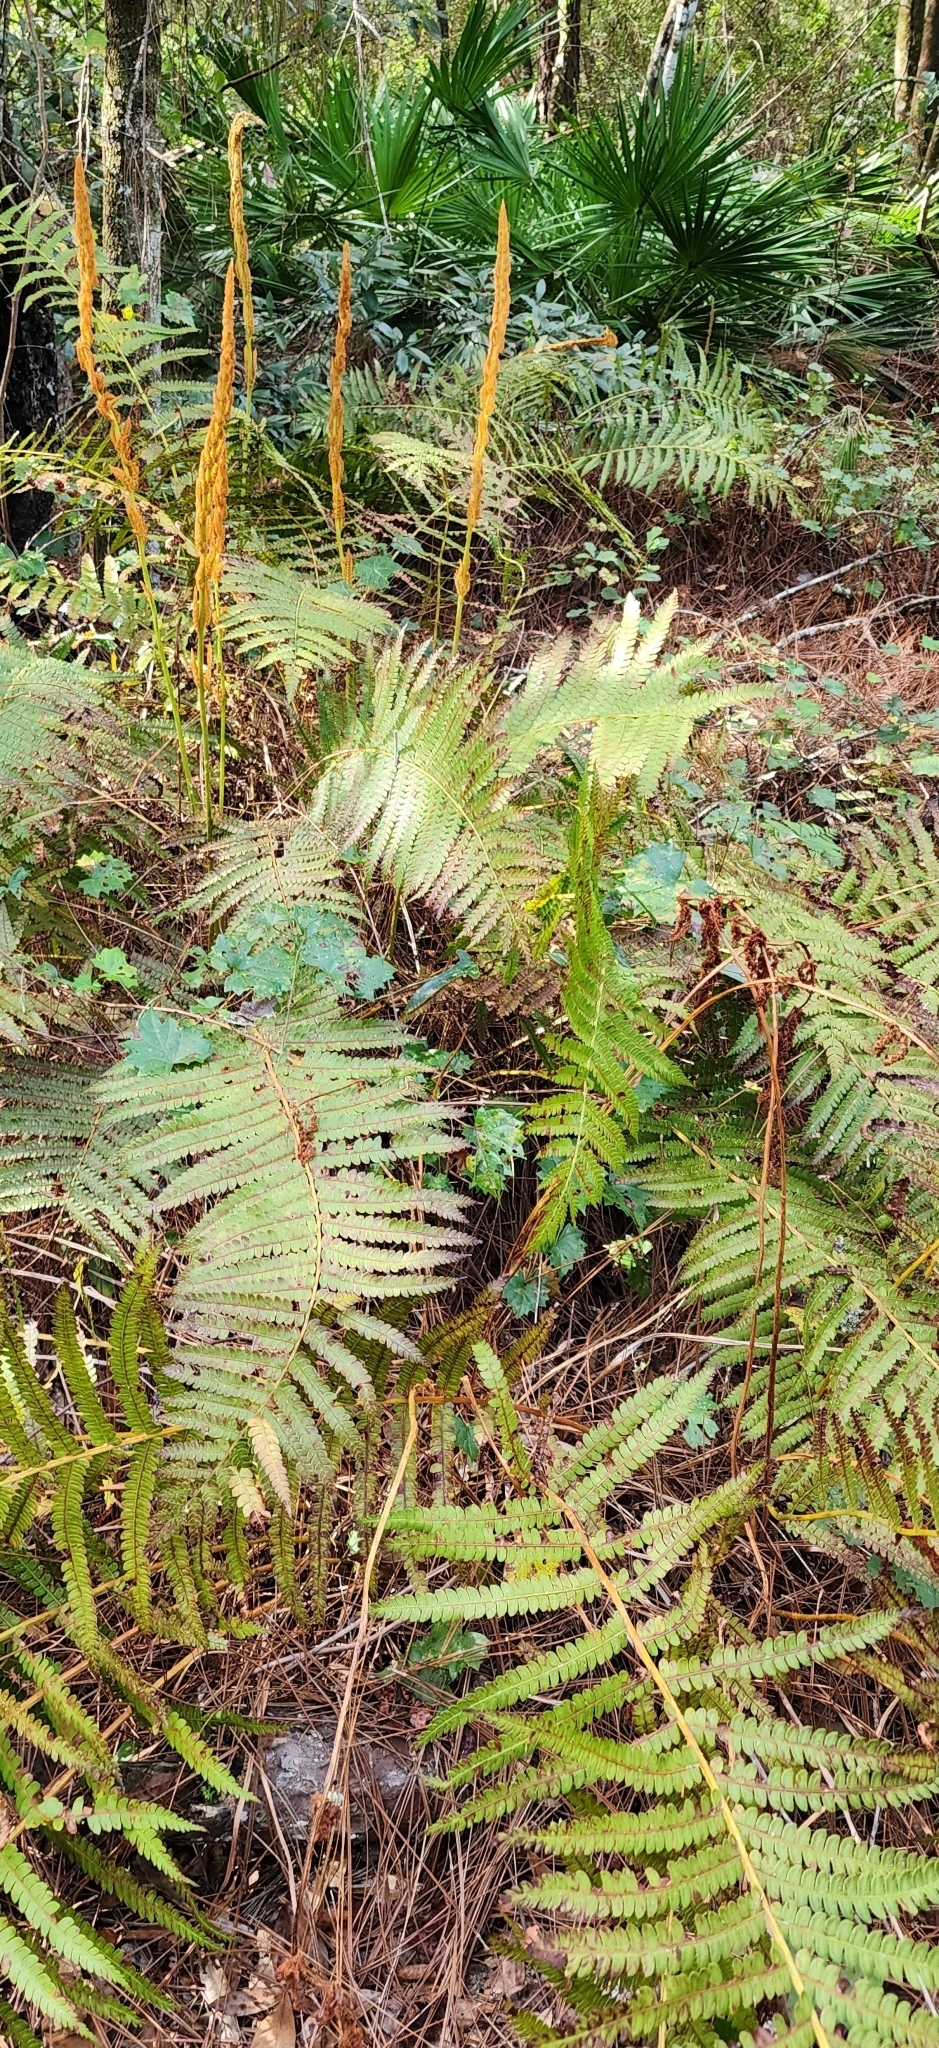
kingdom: Plantae
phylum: Tracheophyta
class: Polypodiopsida
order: Osmundales
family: Osmundaceae
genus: Osmundastrum
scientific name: Osmundastrum cinnamomeum
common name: Cinnamon fern
